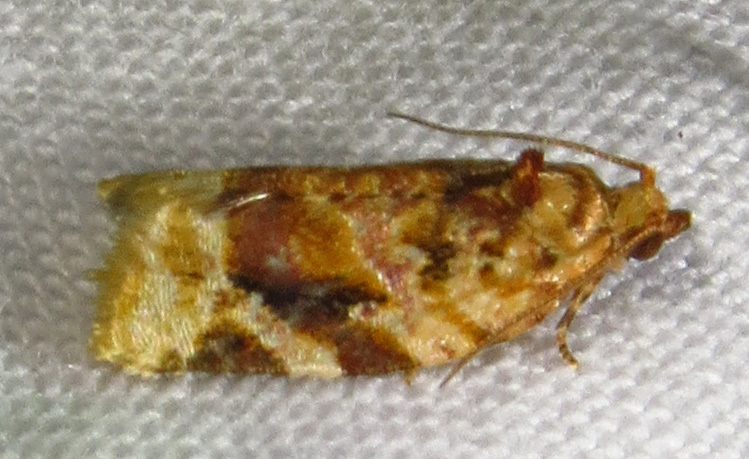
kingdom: Animalia
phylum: Arthropoda
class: Insecta
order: Lepidoptera
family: Tortricidae
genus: Argyrotaenia
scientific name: Argyrotaenia velutinana
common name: Red-banded leafroller moth
